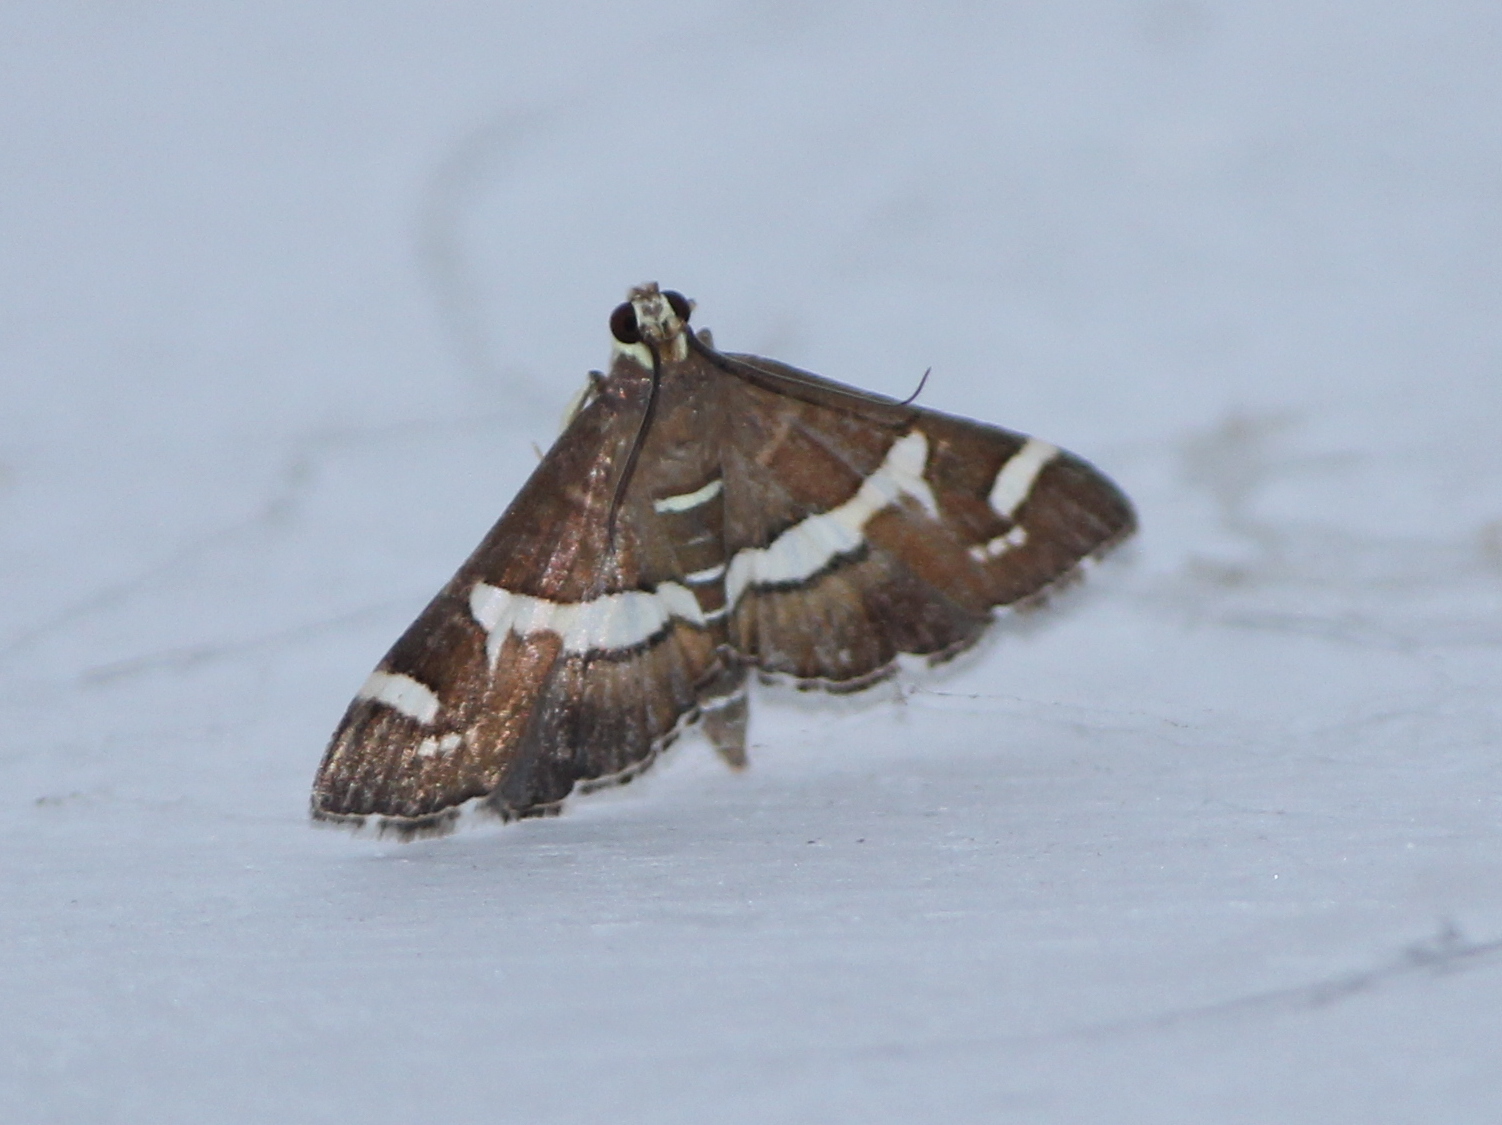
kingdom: Animalia
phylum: Arthropoda
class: Insecta
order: Lepidoptera
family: Crambidae
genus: Spoladea
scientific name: Spoladea recurvalis
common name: Beet webworm moth
